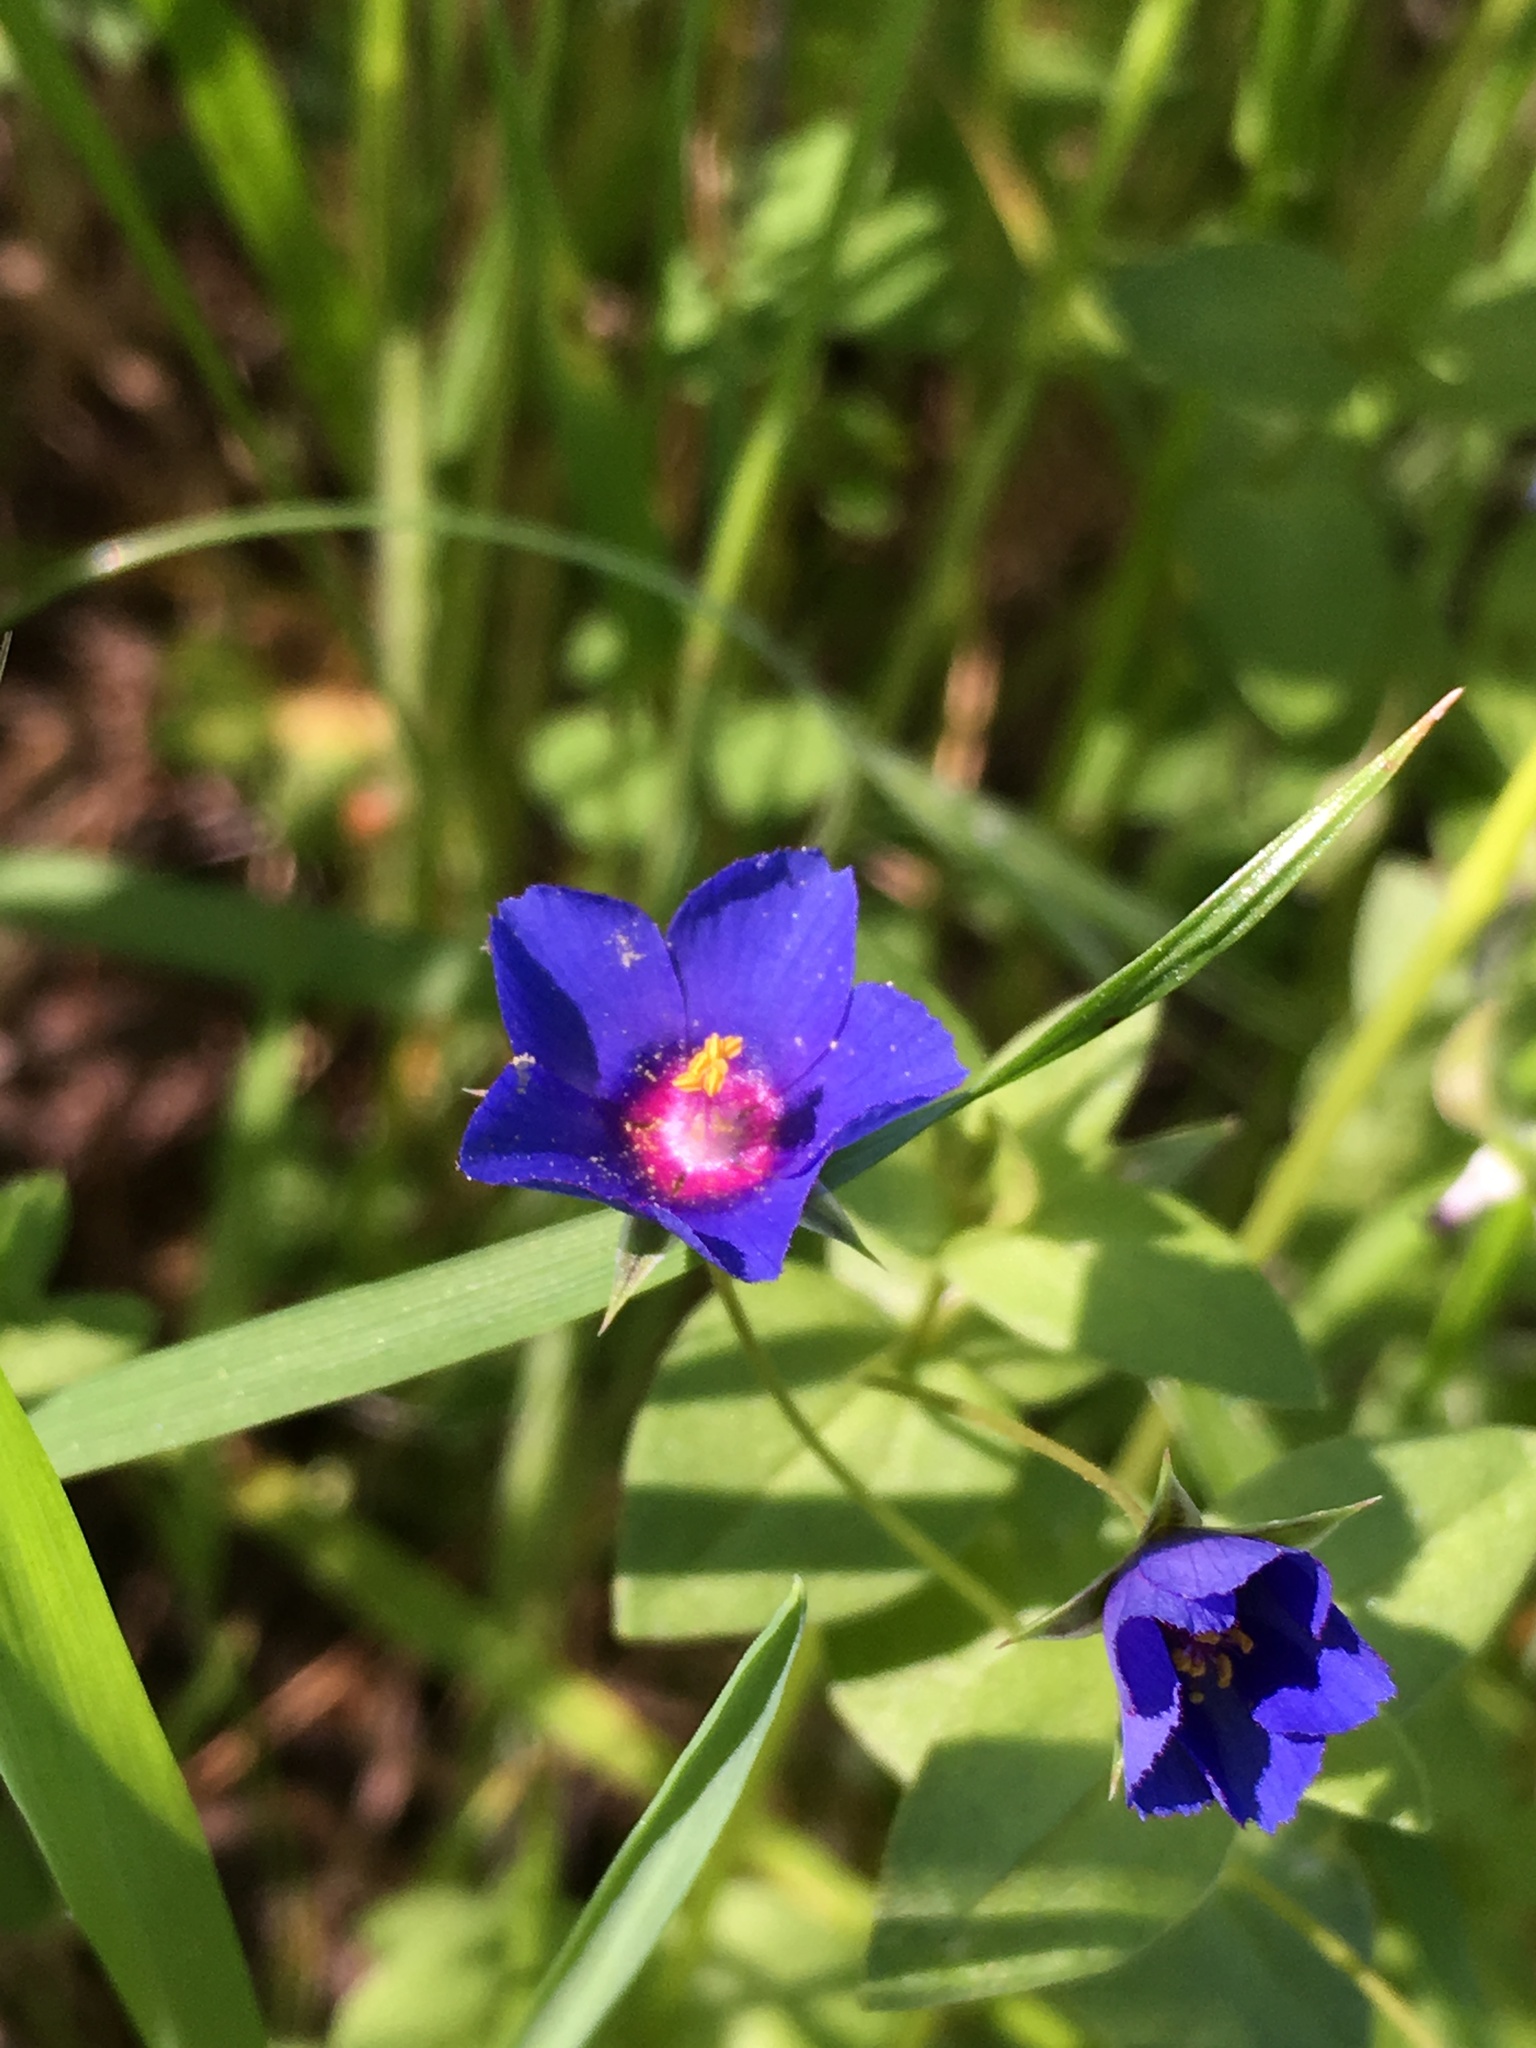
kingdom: Plantae
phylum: Tracheophyta
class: Magnoliopsida
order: Ericales
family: Primulaceae
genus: Lysimachia
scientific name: Lysimachia loeflingii
